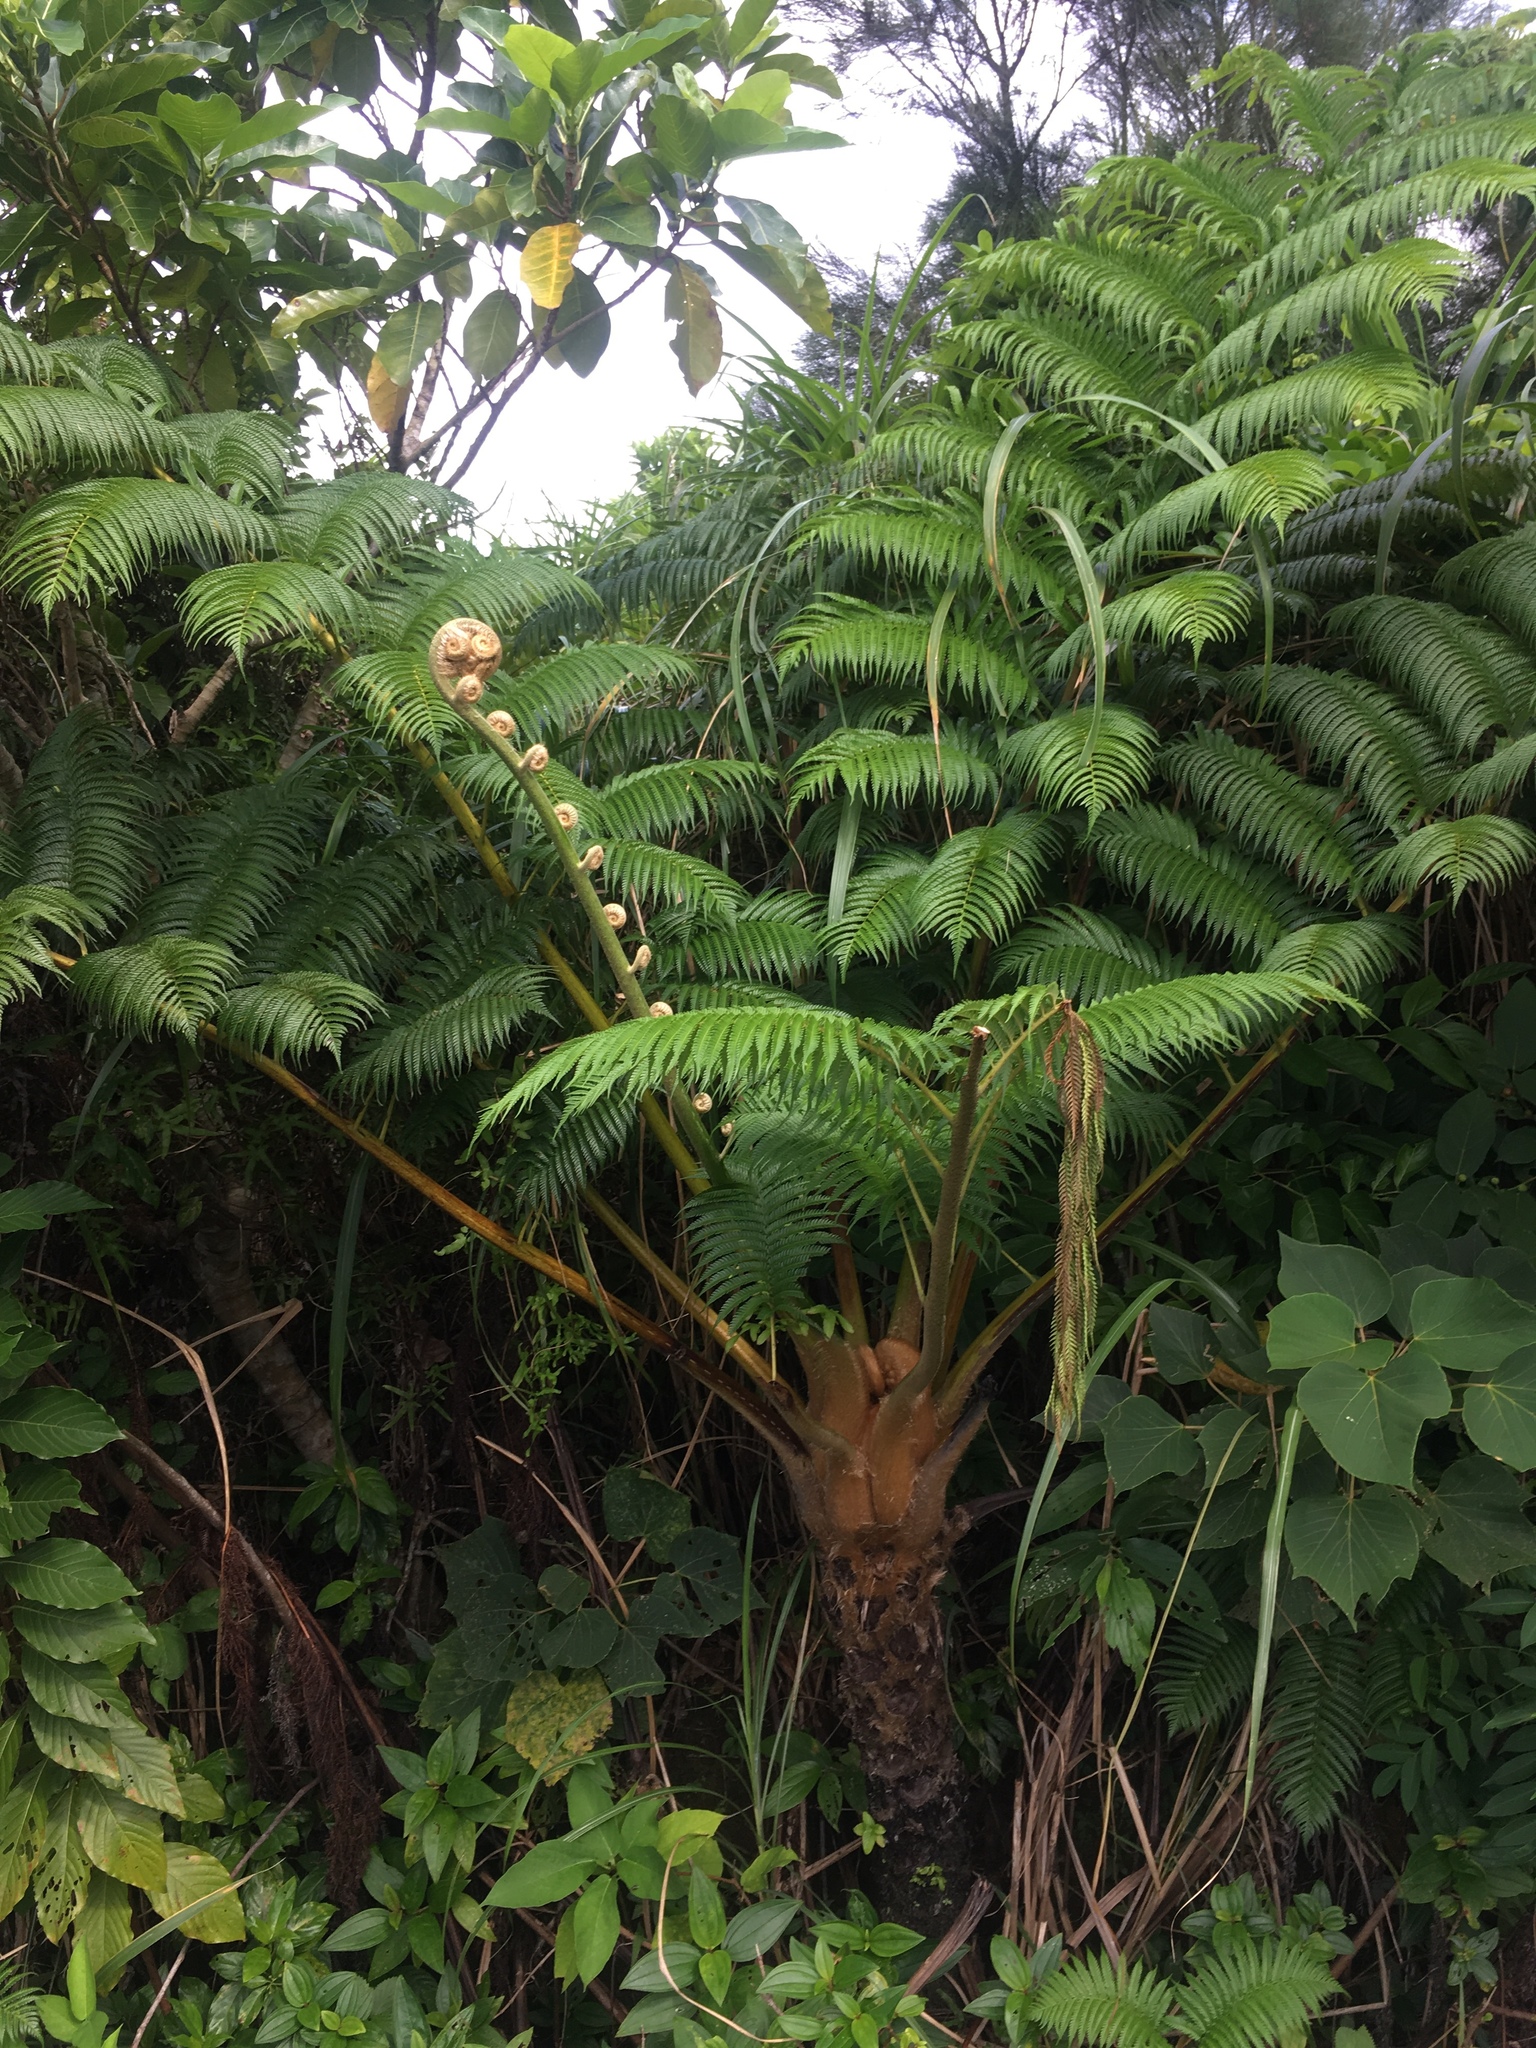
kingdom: Plantae
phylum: Tracheophyta
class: Polypodiopsida
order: Cyatheales
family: Cyatheaceae
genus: Alsophila
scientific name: Alsophila lepifera
